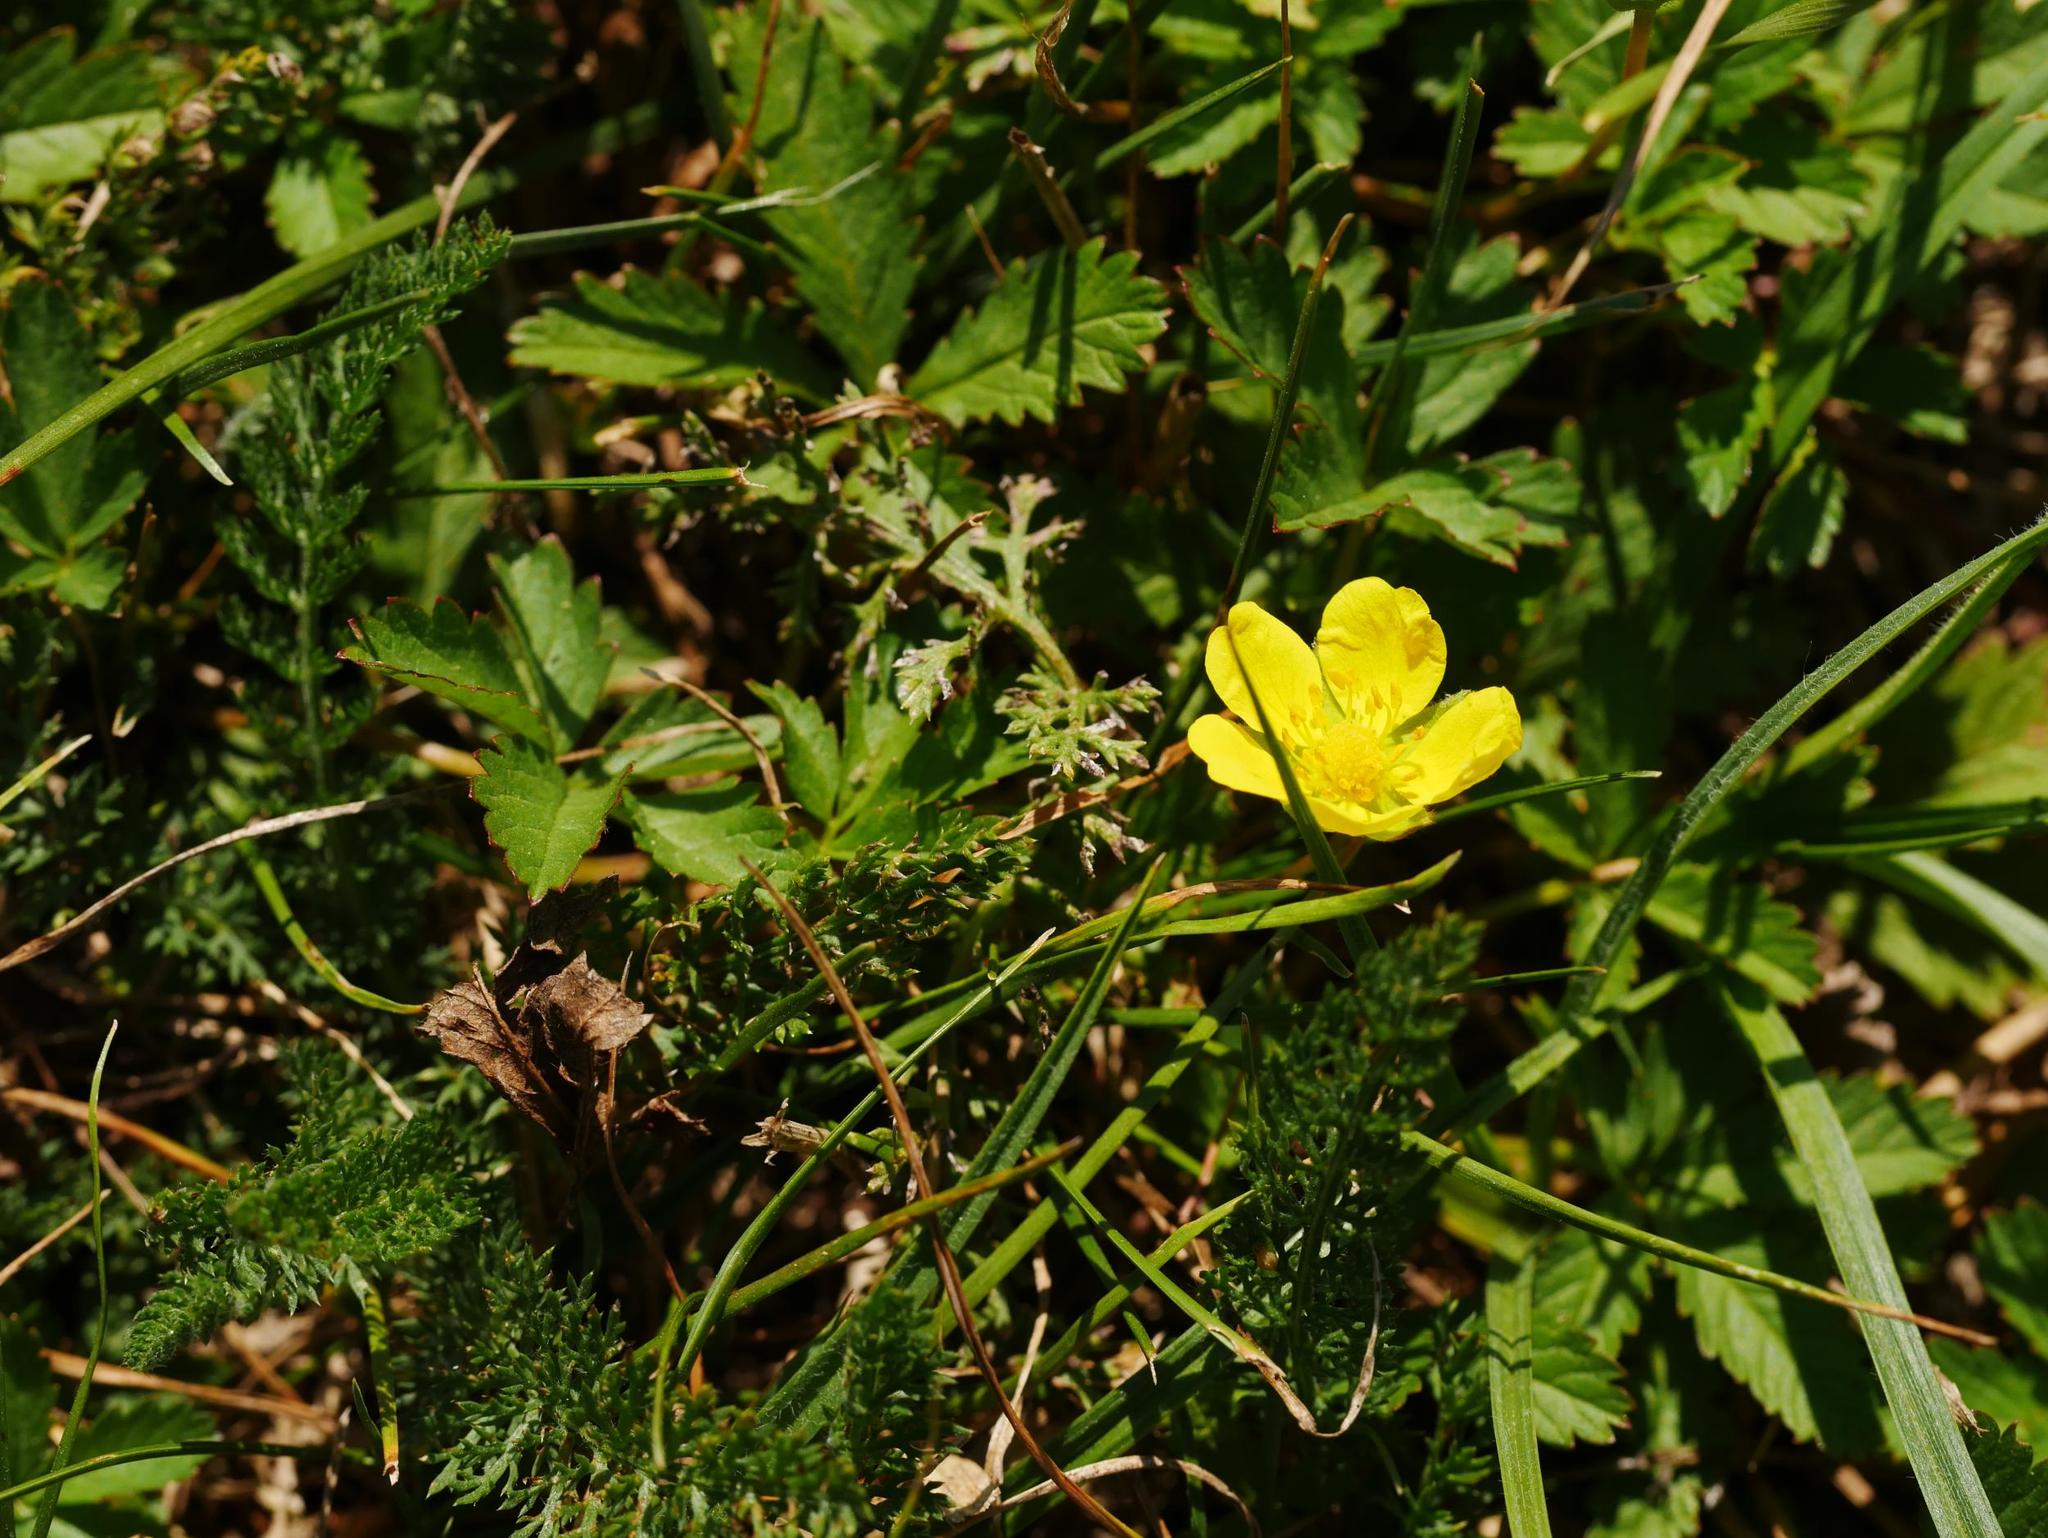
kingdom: Plantae
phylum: Tracheophyta
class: Magnoliopsida
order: Rosales
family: Rosaceae
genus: Potentilla
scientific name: Potentilla reptans
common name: Creeping cinquefoil
